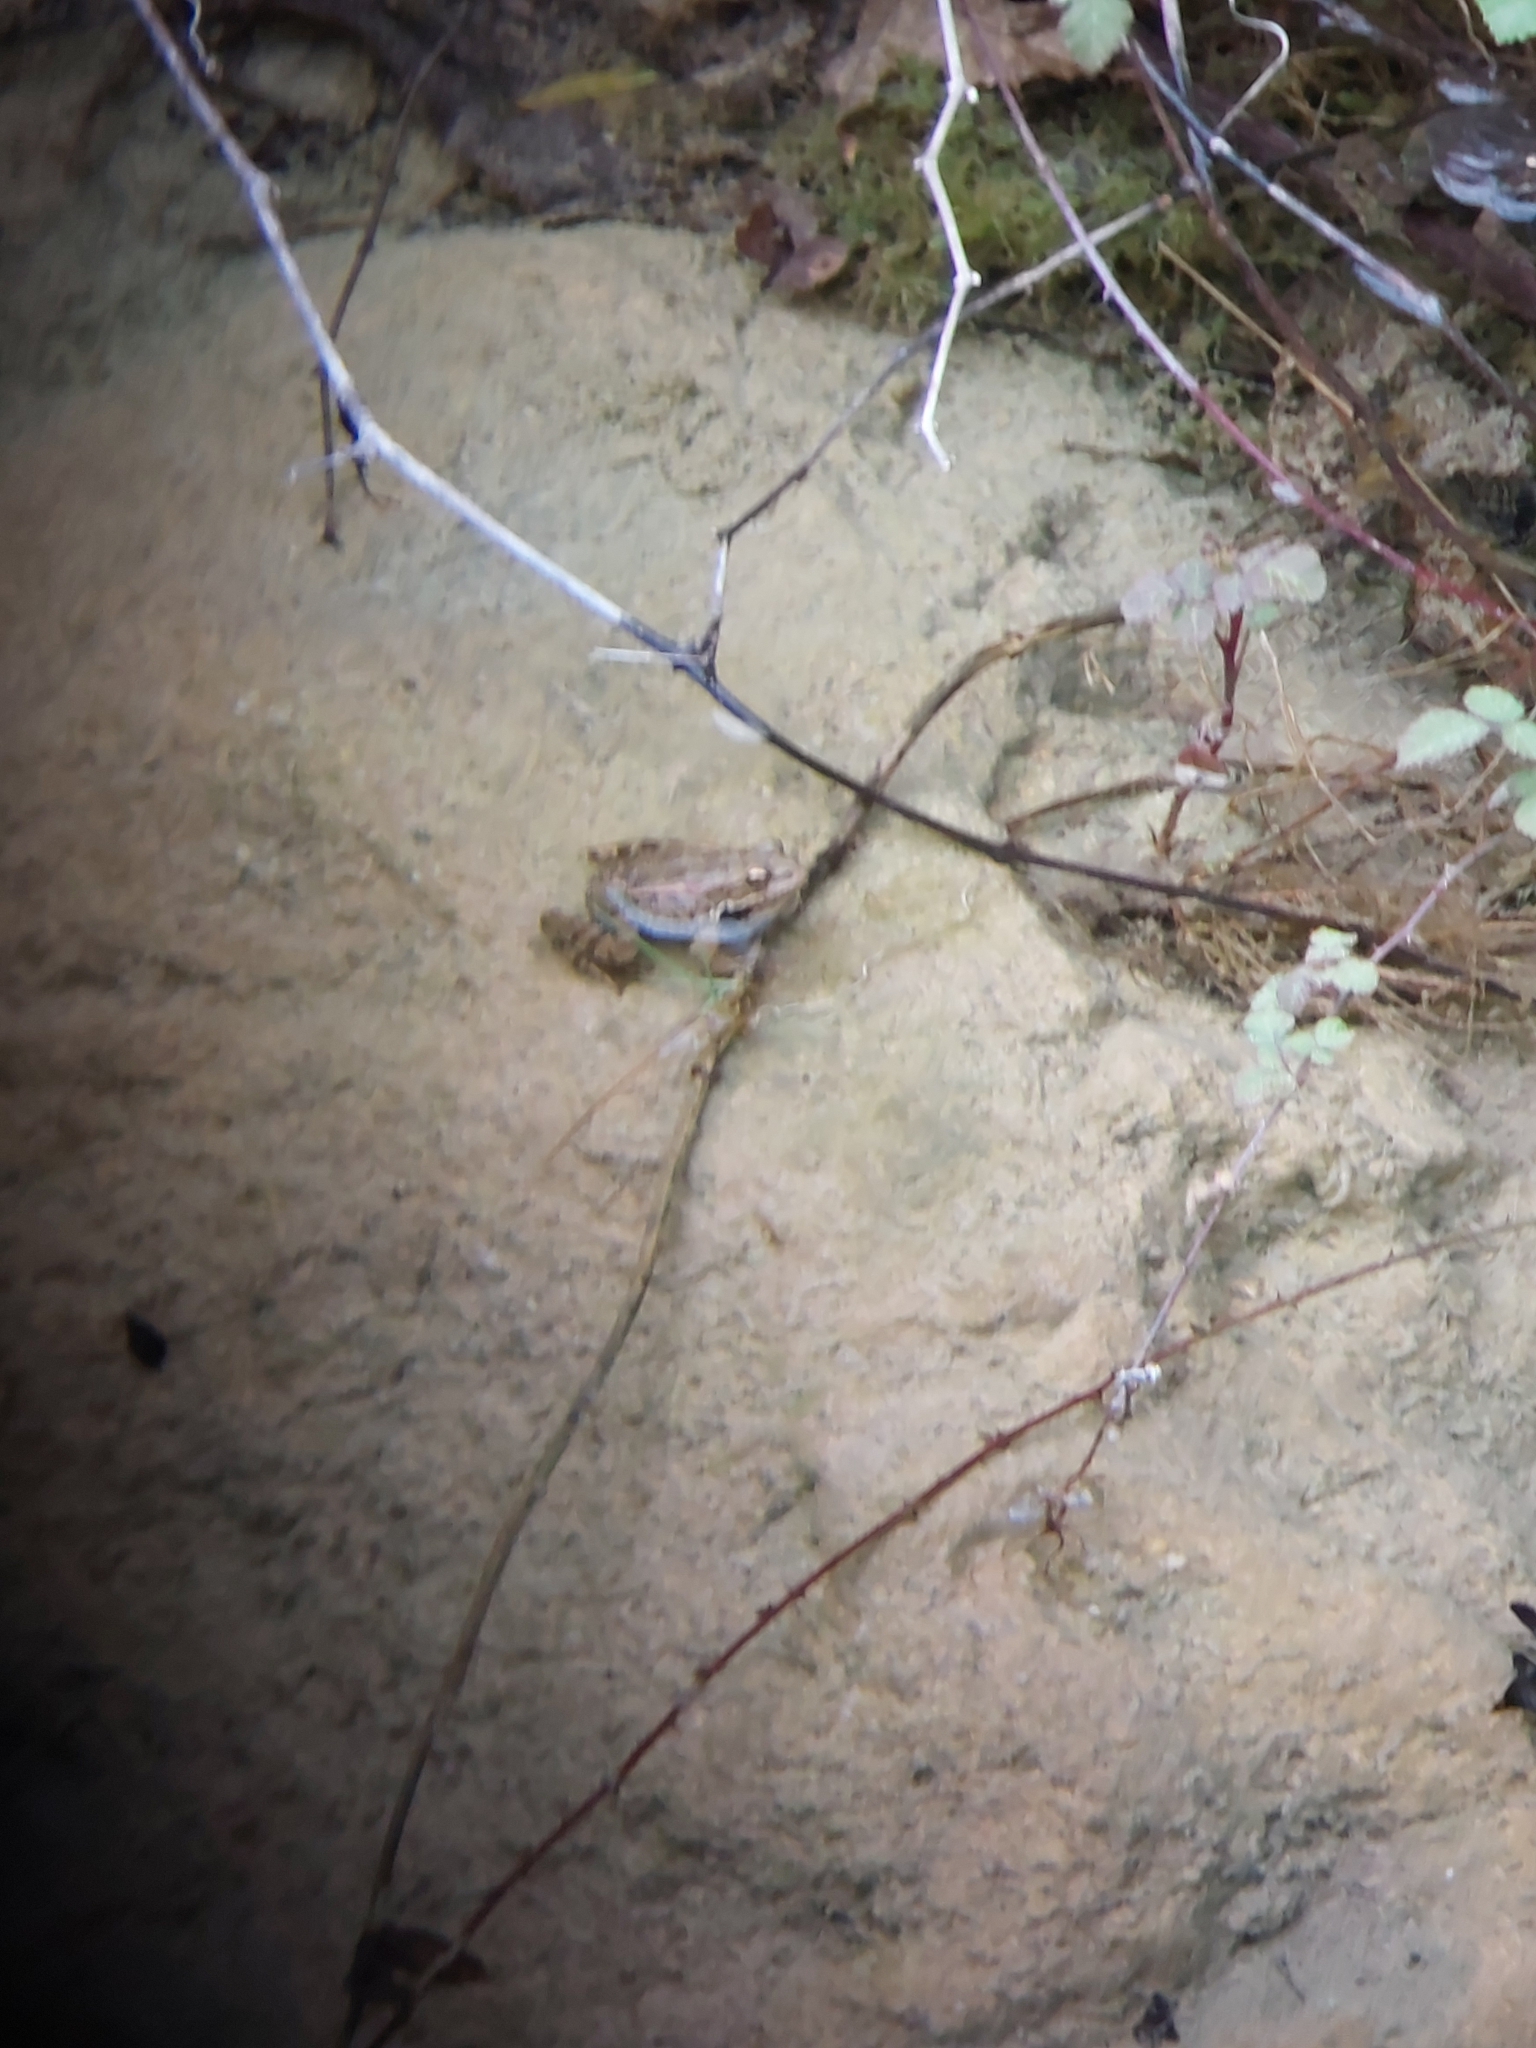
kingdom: Animalia
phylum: Chordata
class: Amphibia
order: Anura
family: Ranidae
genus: Pelophylax
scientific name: Pelophylax cretensis
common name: Cretan frog
